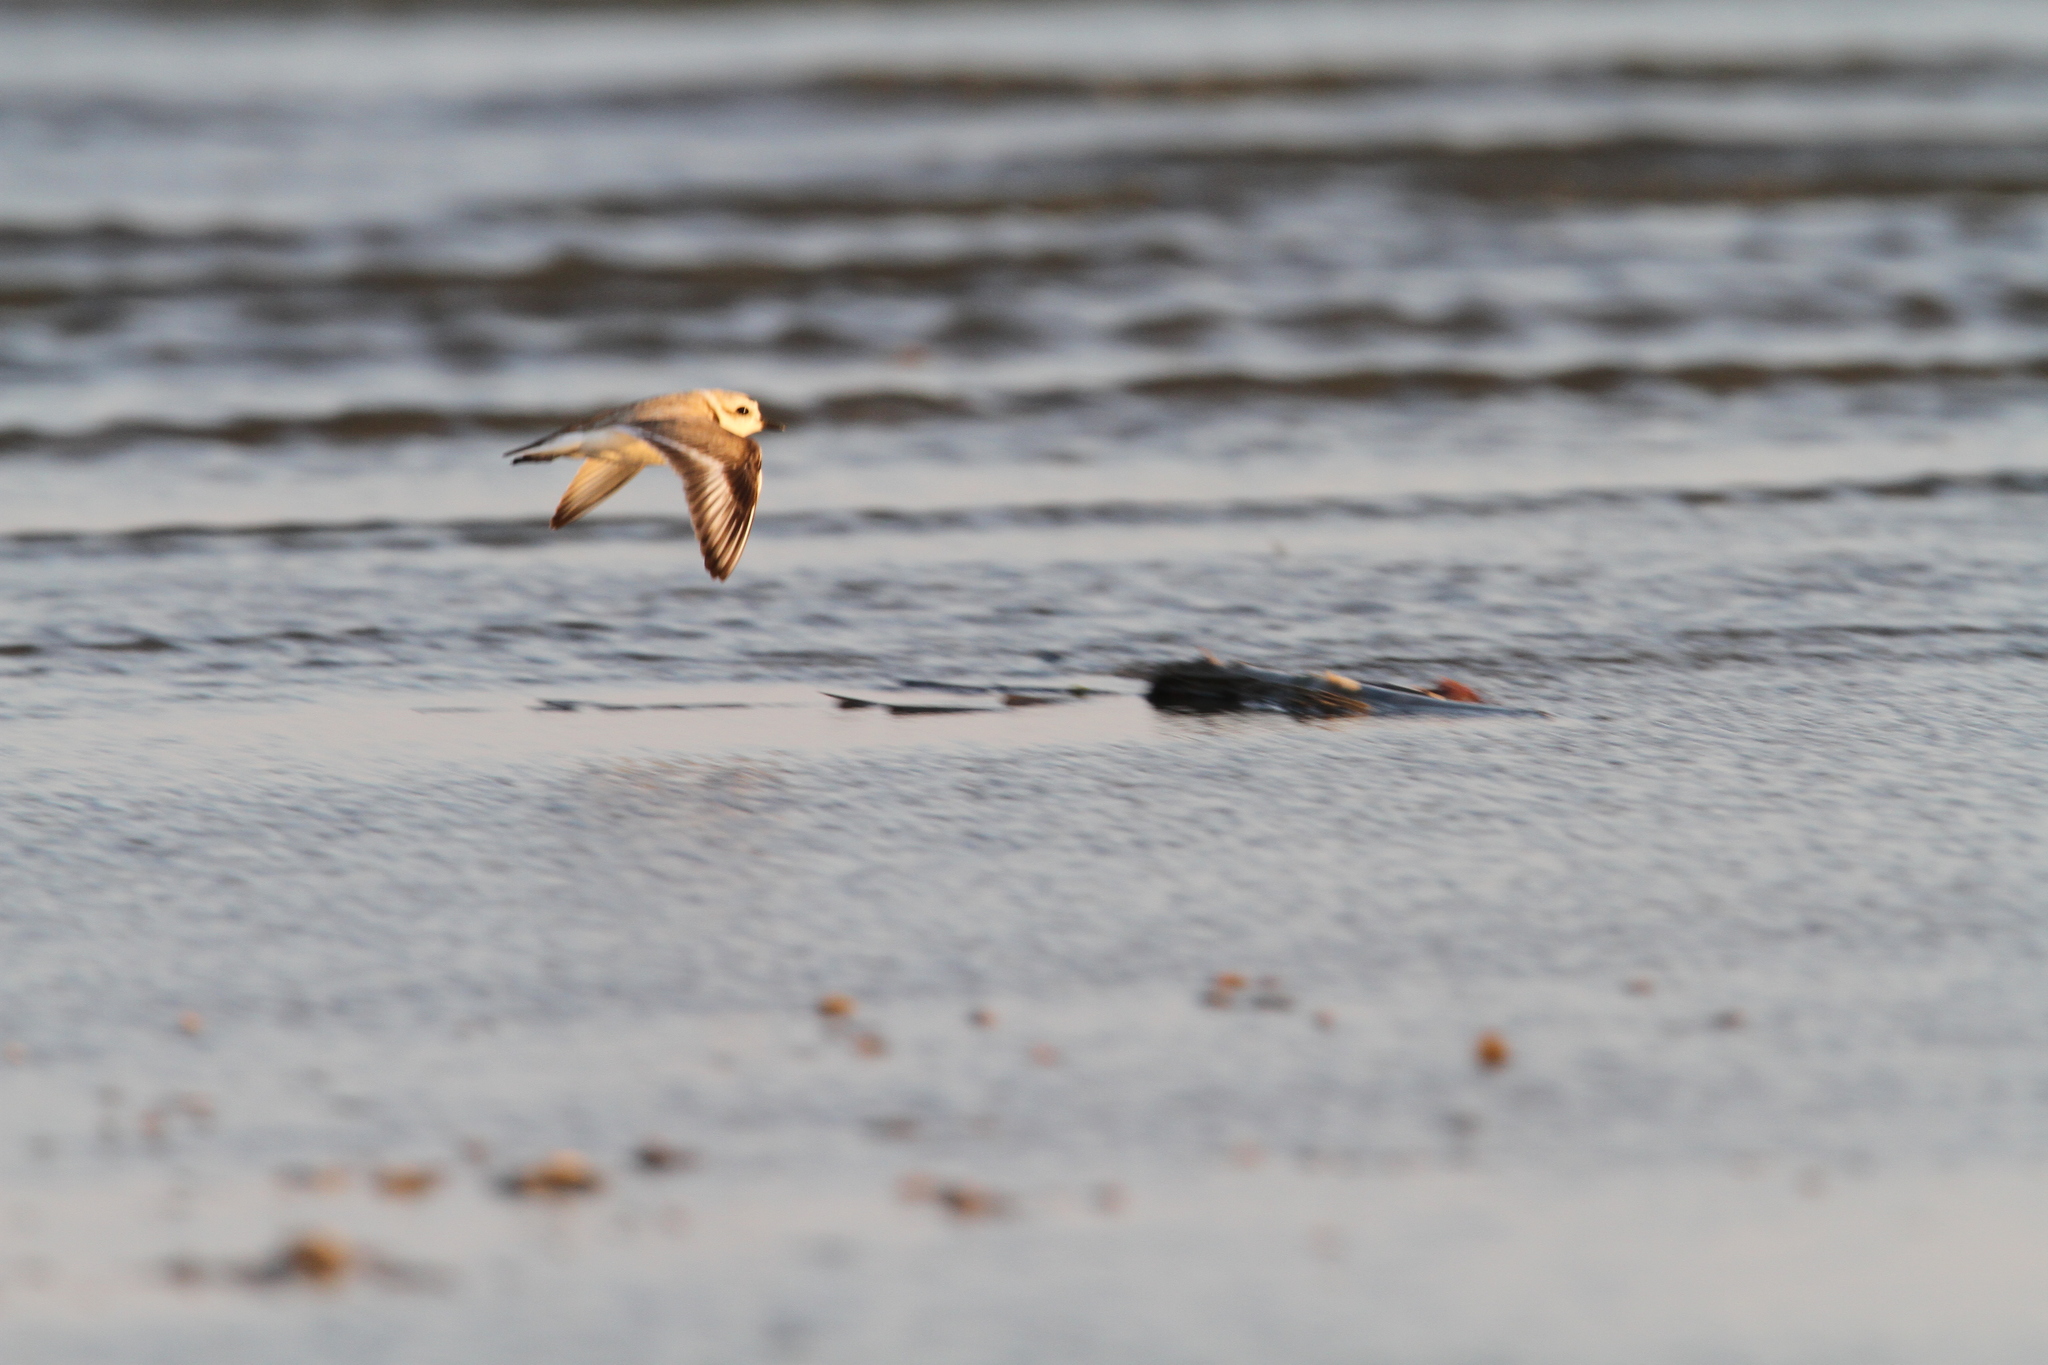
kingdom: Animalia
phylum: Chordata
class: Aves
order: Charadriiformes
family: Charadriidae
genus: Anarhynchus
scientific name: Anarhynchus
